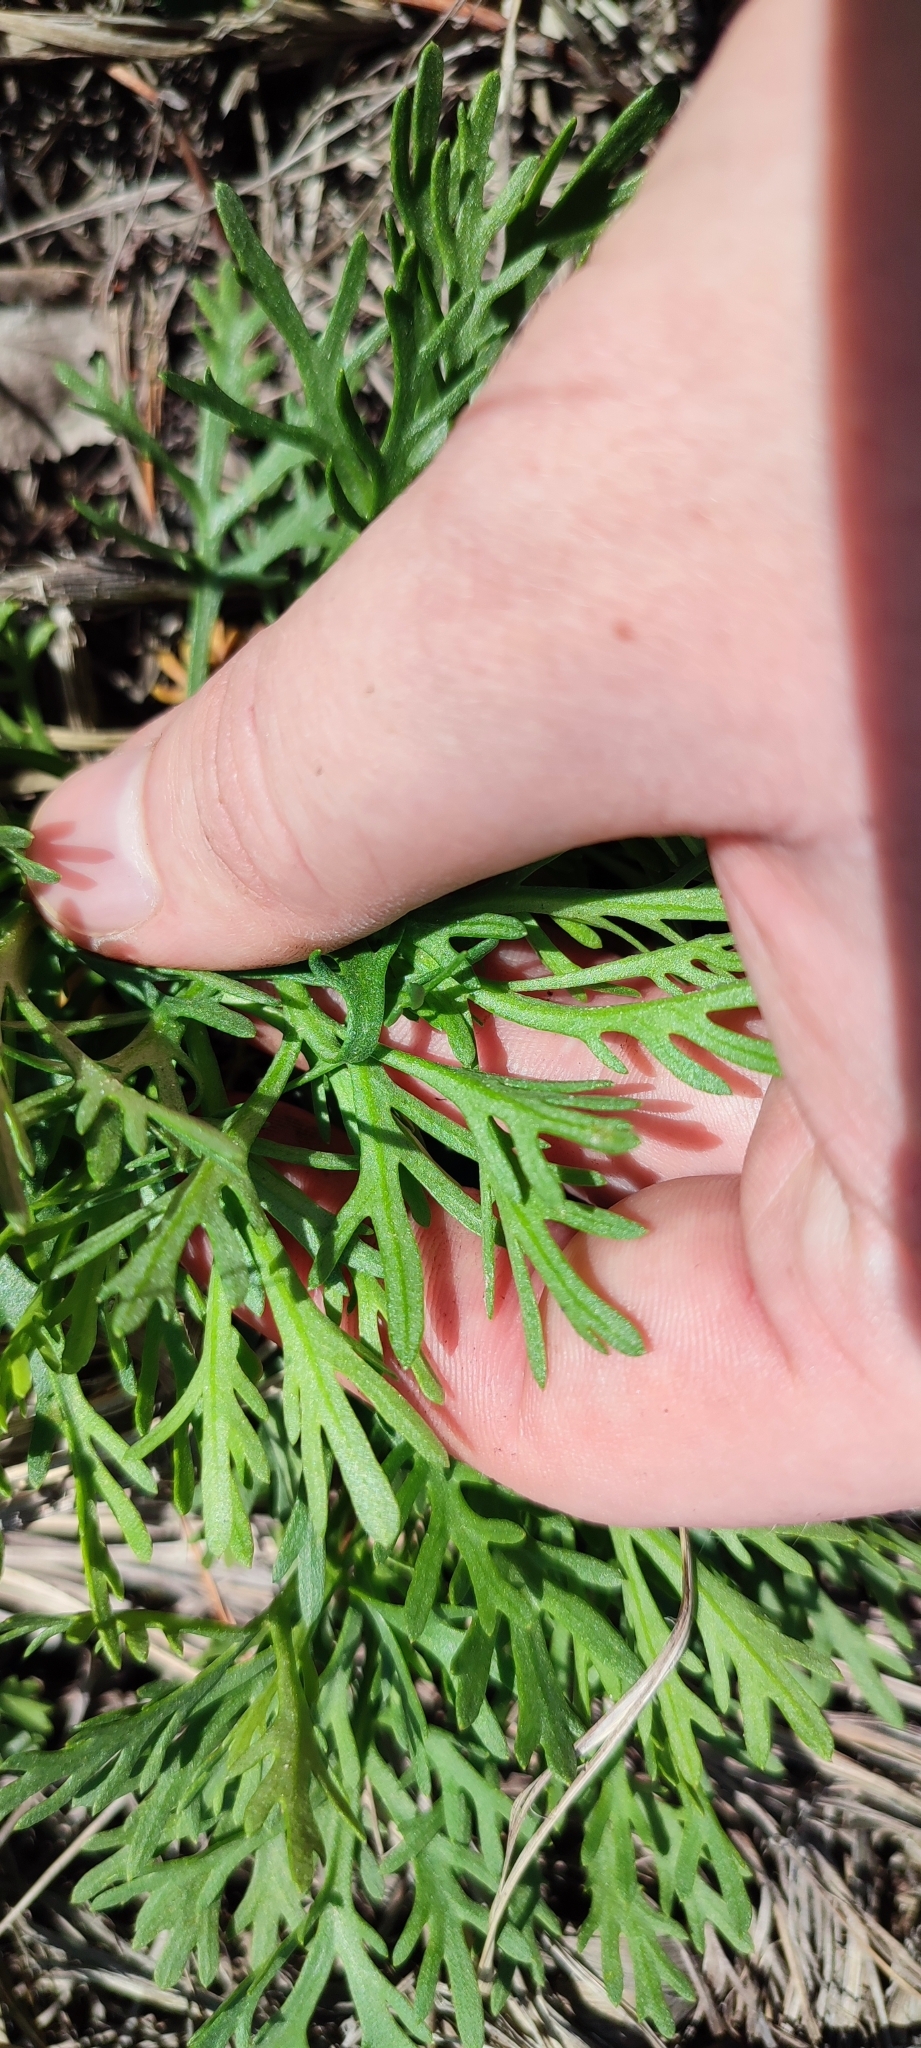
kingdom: Plantae
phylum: Tracheophyta
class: Magnoliopsida
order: Asterales
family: Asteraceae
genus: Chrysanthemum
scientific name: Chrysanthemum zawadzkii
